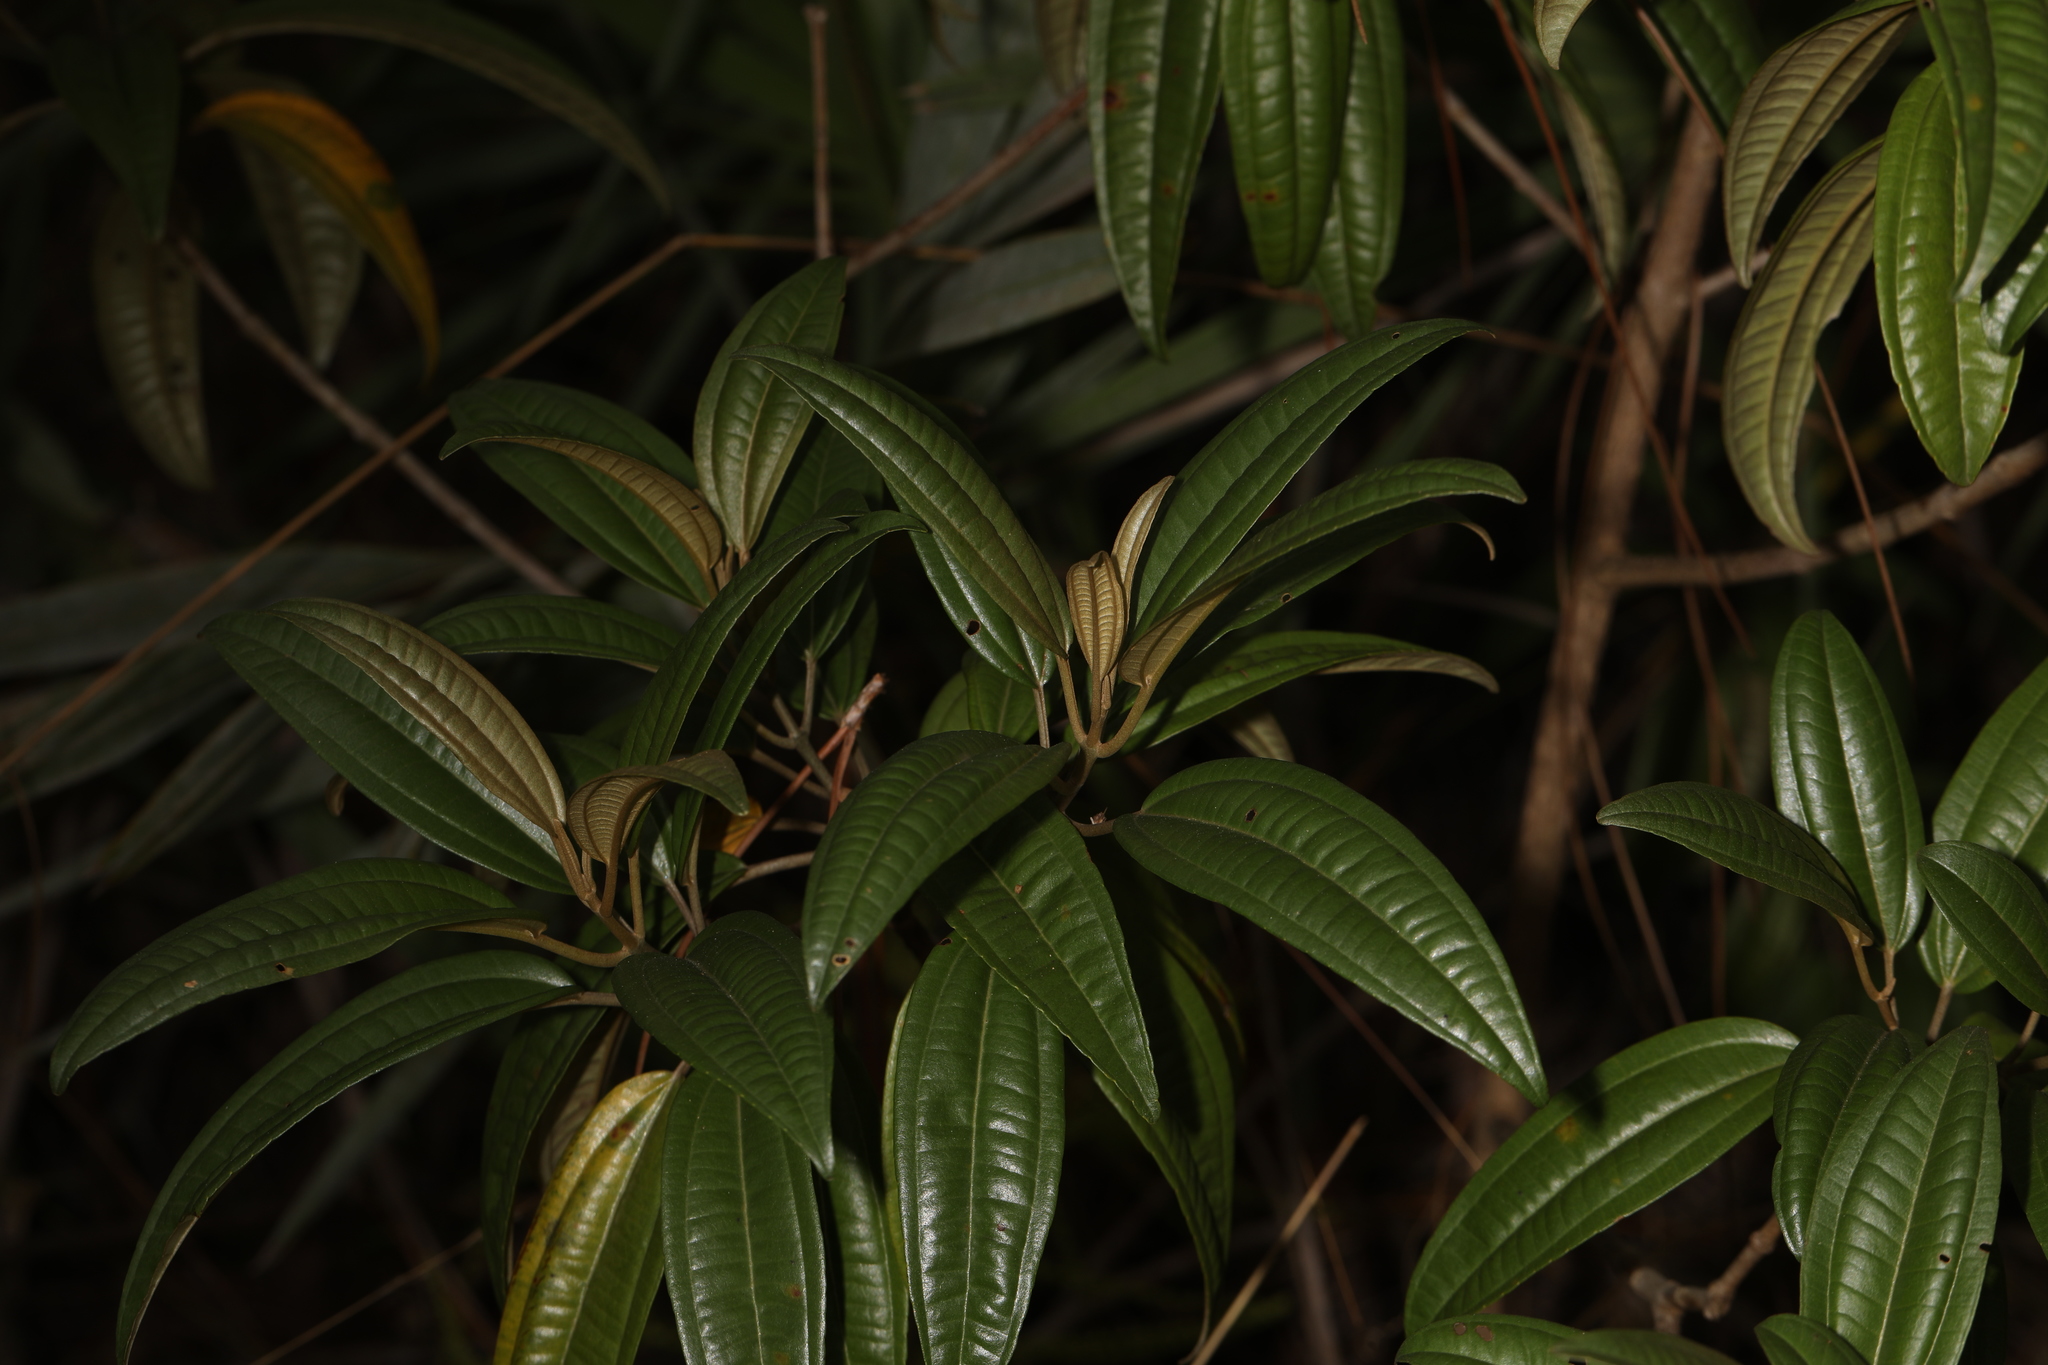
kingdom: Plantae
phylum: Tracheophyta
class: Magnoliopsida
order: Myrtales
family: Melastomataceae
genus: Miconia
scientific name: Miconia bicolor
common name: Johnnyberry
